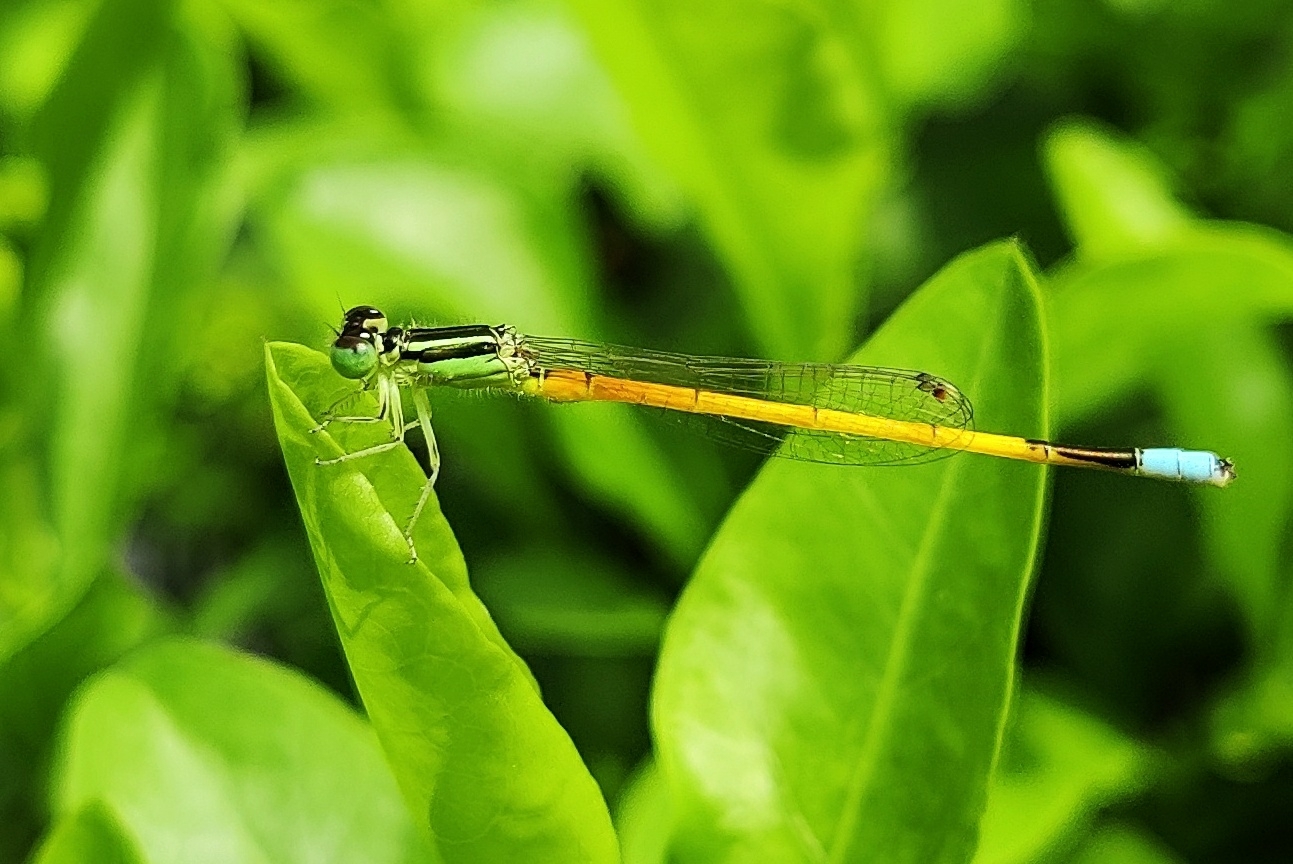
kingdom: Animalia
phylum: Arthropoda
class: Insecta
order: Odonata
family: Coenagrionidae
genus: Ischnura
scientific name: Ischnura rubilio
